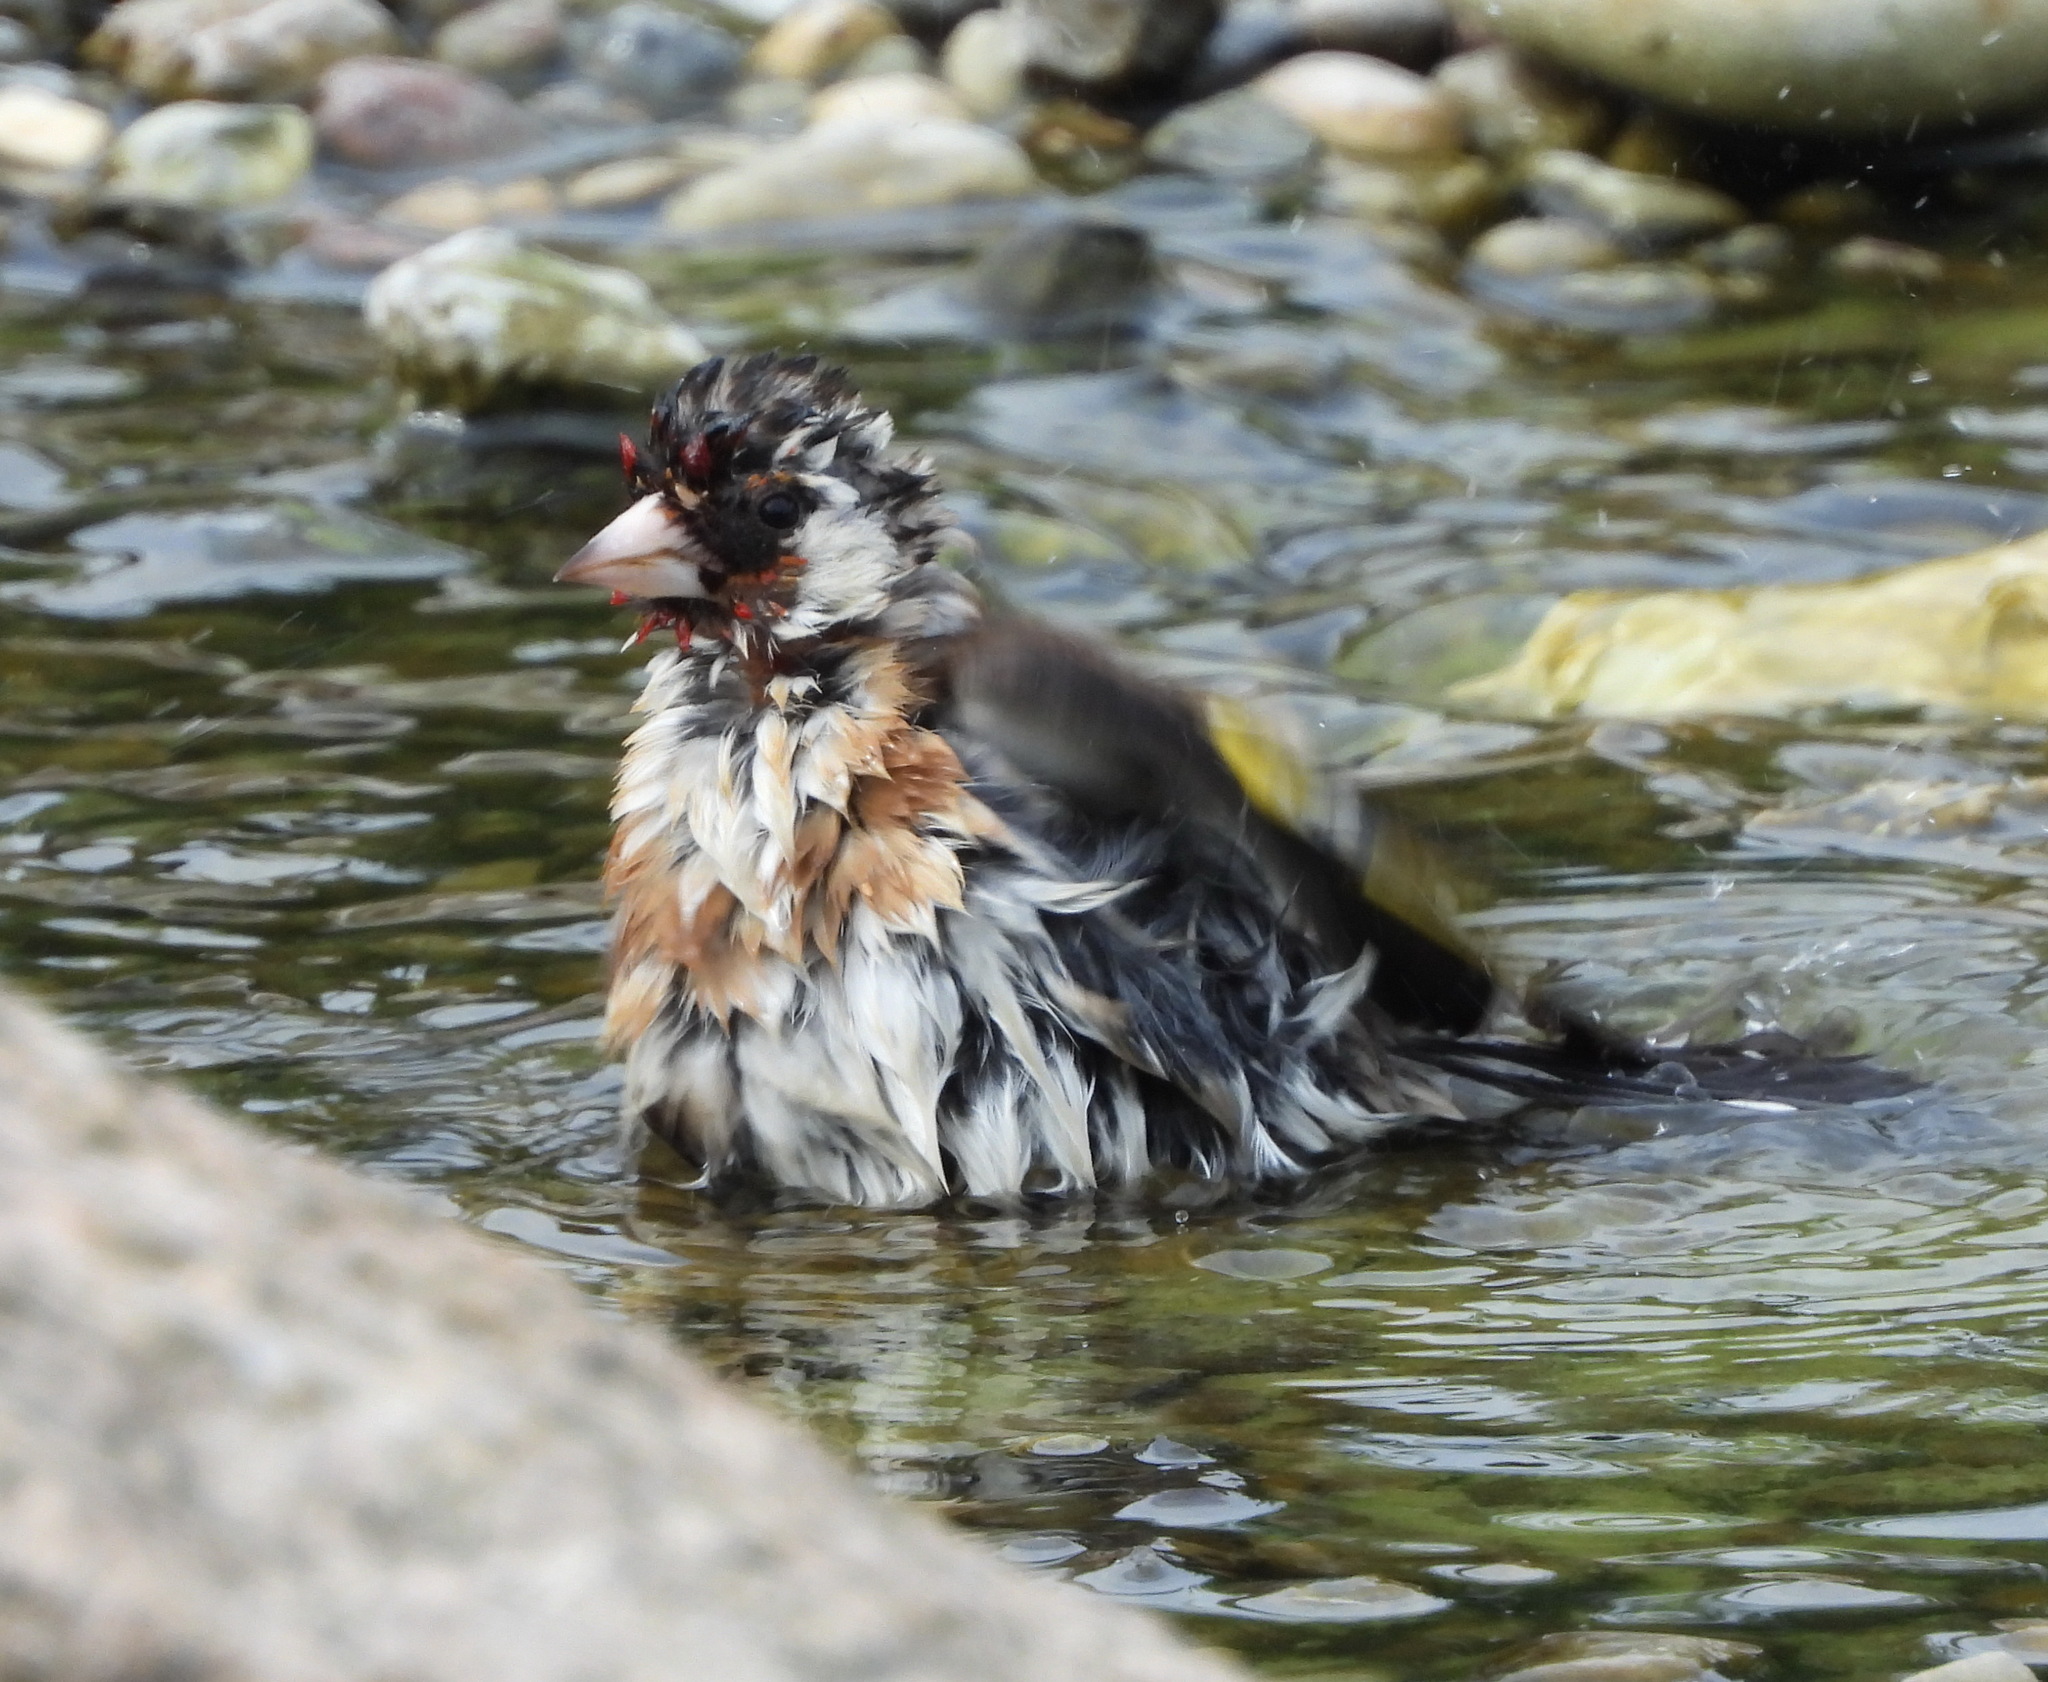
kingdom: Animalia
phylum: Chordata
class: Aves
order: Passeriformes
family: Fringillidae
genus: Carduelis
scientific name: Carduelis carduelis
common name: European goldfinch
